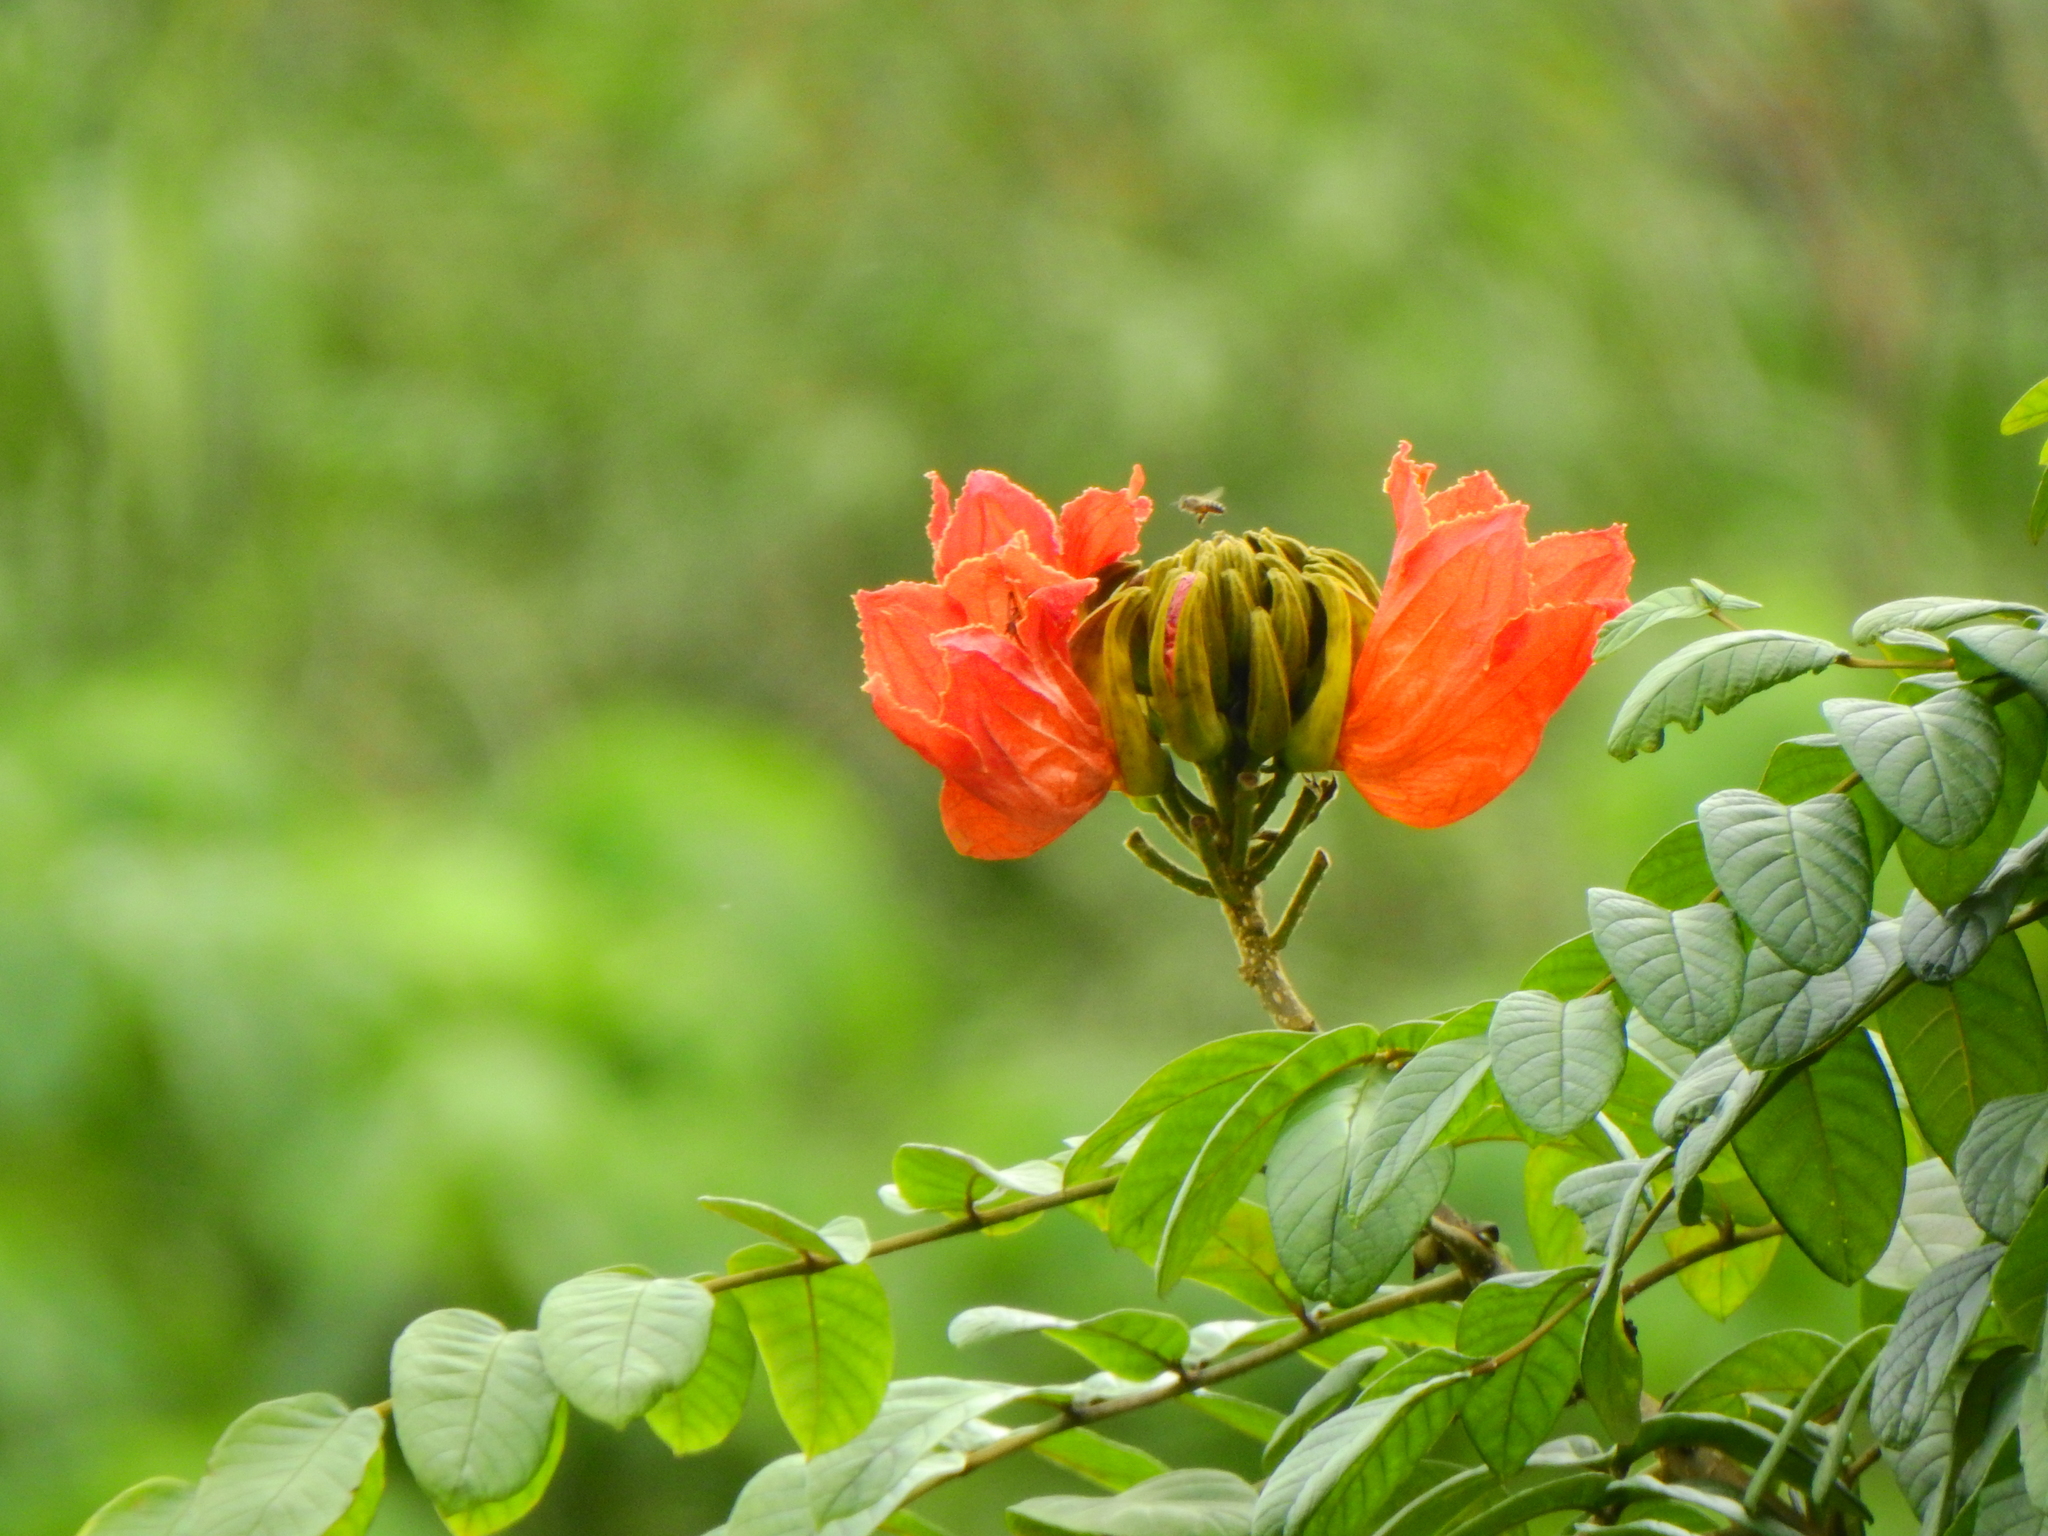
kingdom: Plantae
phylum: Tracheophyta
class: Magnoliopsida
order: Lamiales
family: Bignoniaceae
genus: Spathodea
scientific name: Spathodea campanulata
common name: African tuliptree
